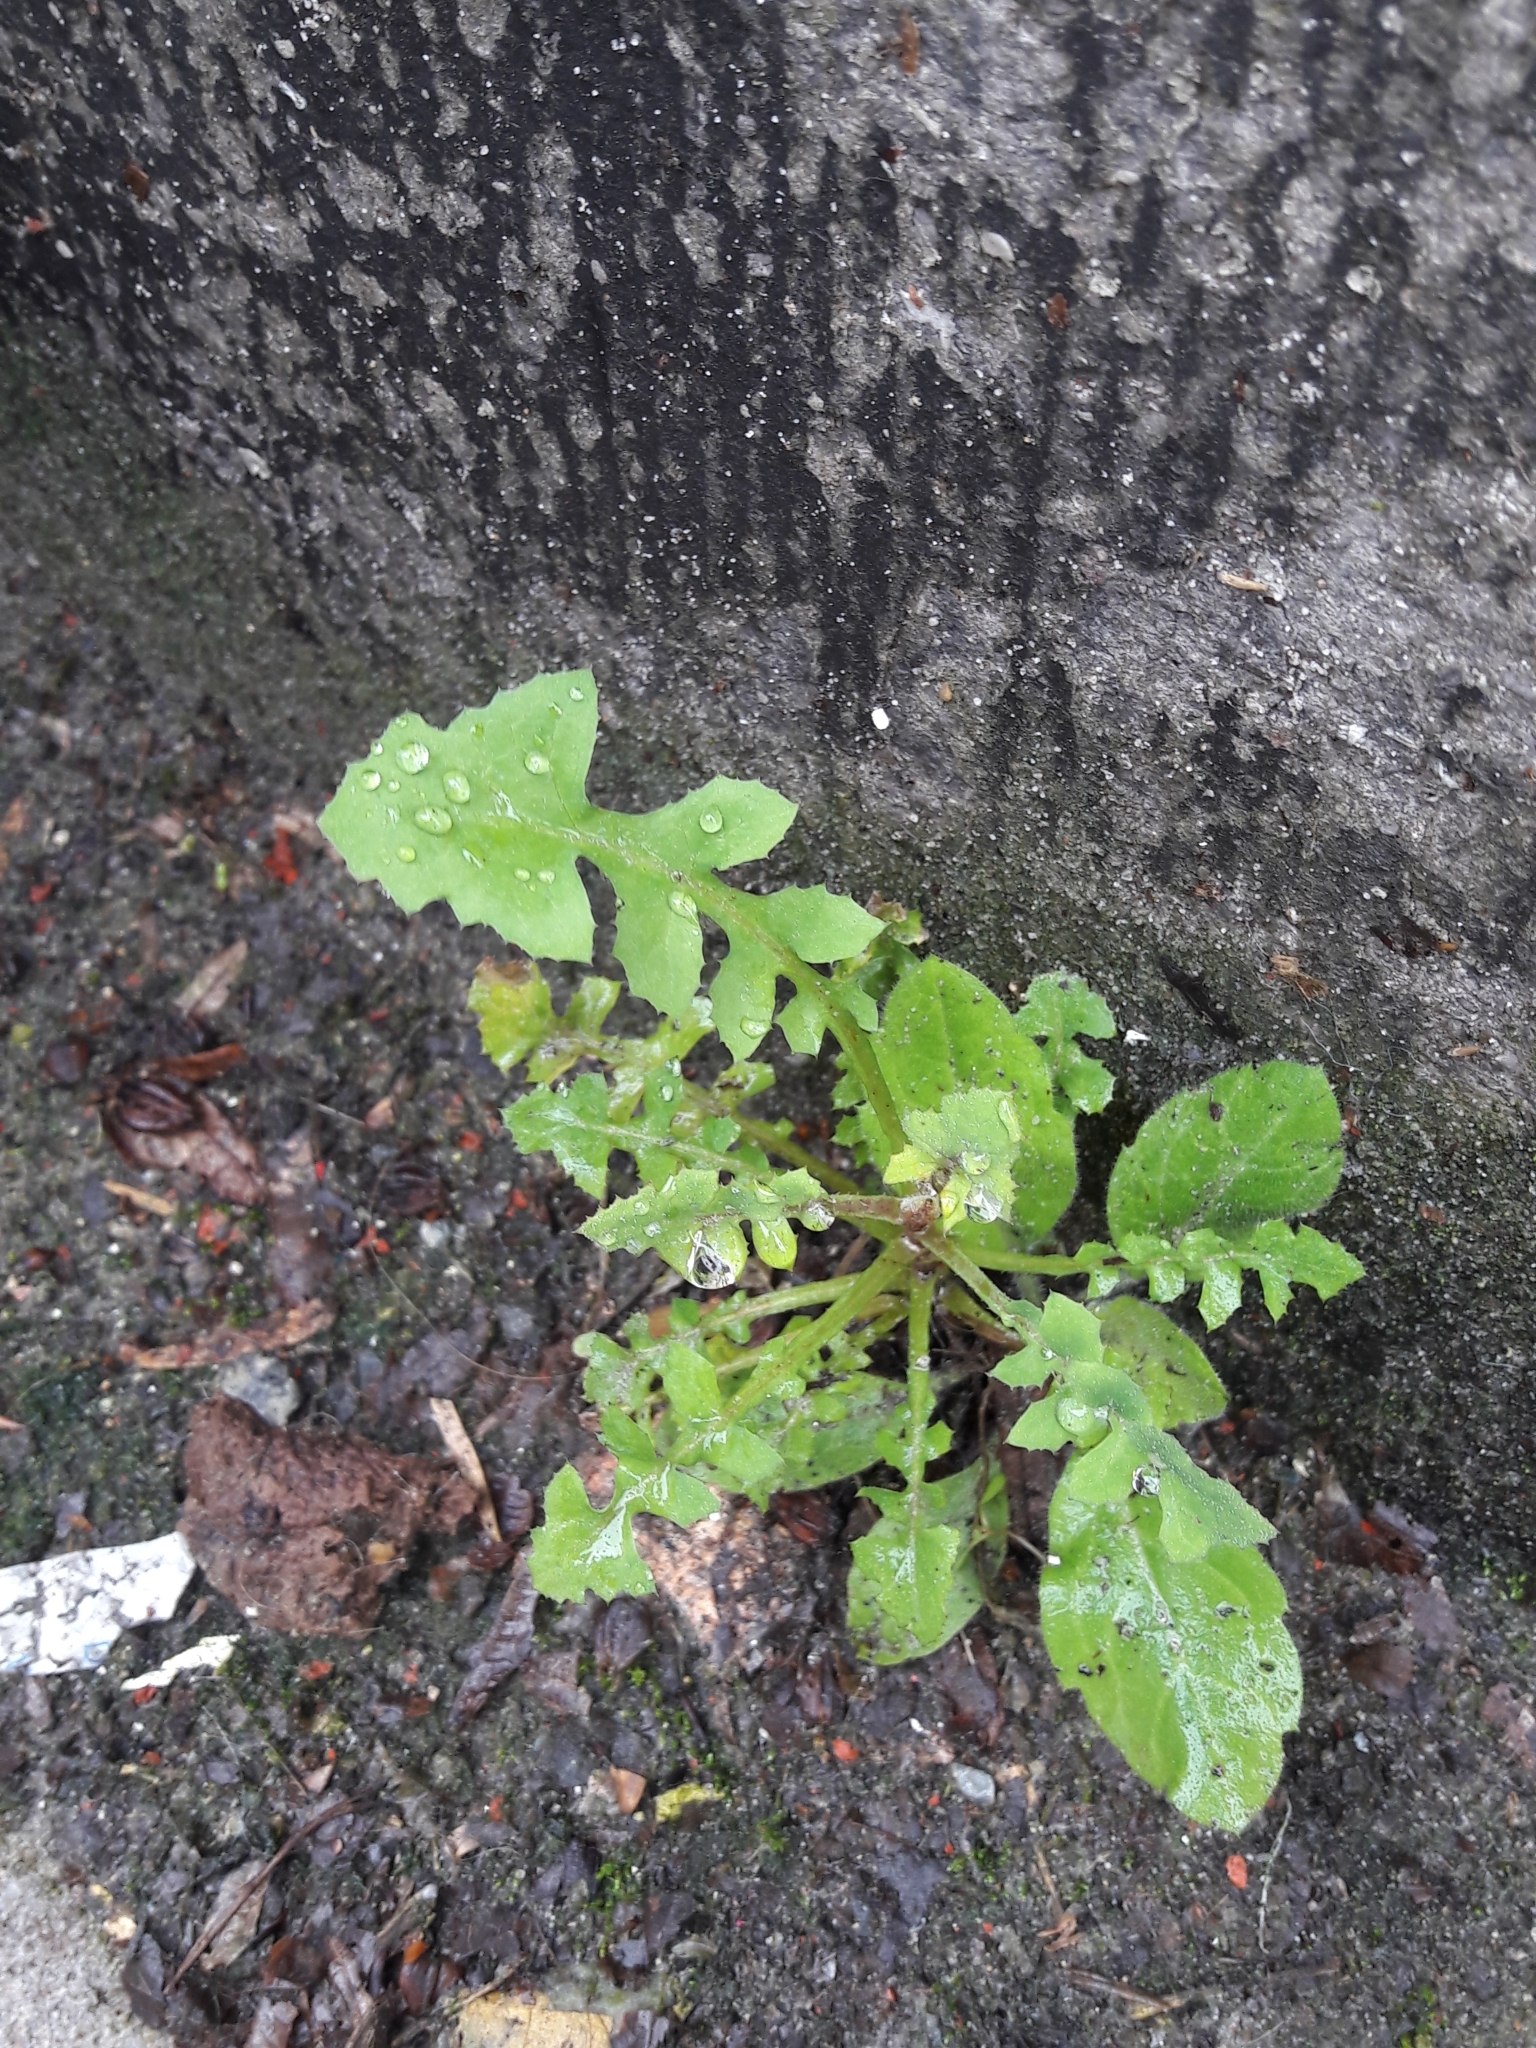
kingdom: Plantae
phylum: Tracheophyta
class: Magnoliopsida
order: Asterales
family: Asteraceae
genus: Sonchus
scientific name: Sonchus oleraceus
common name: Common sowthistle
